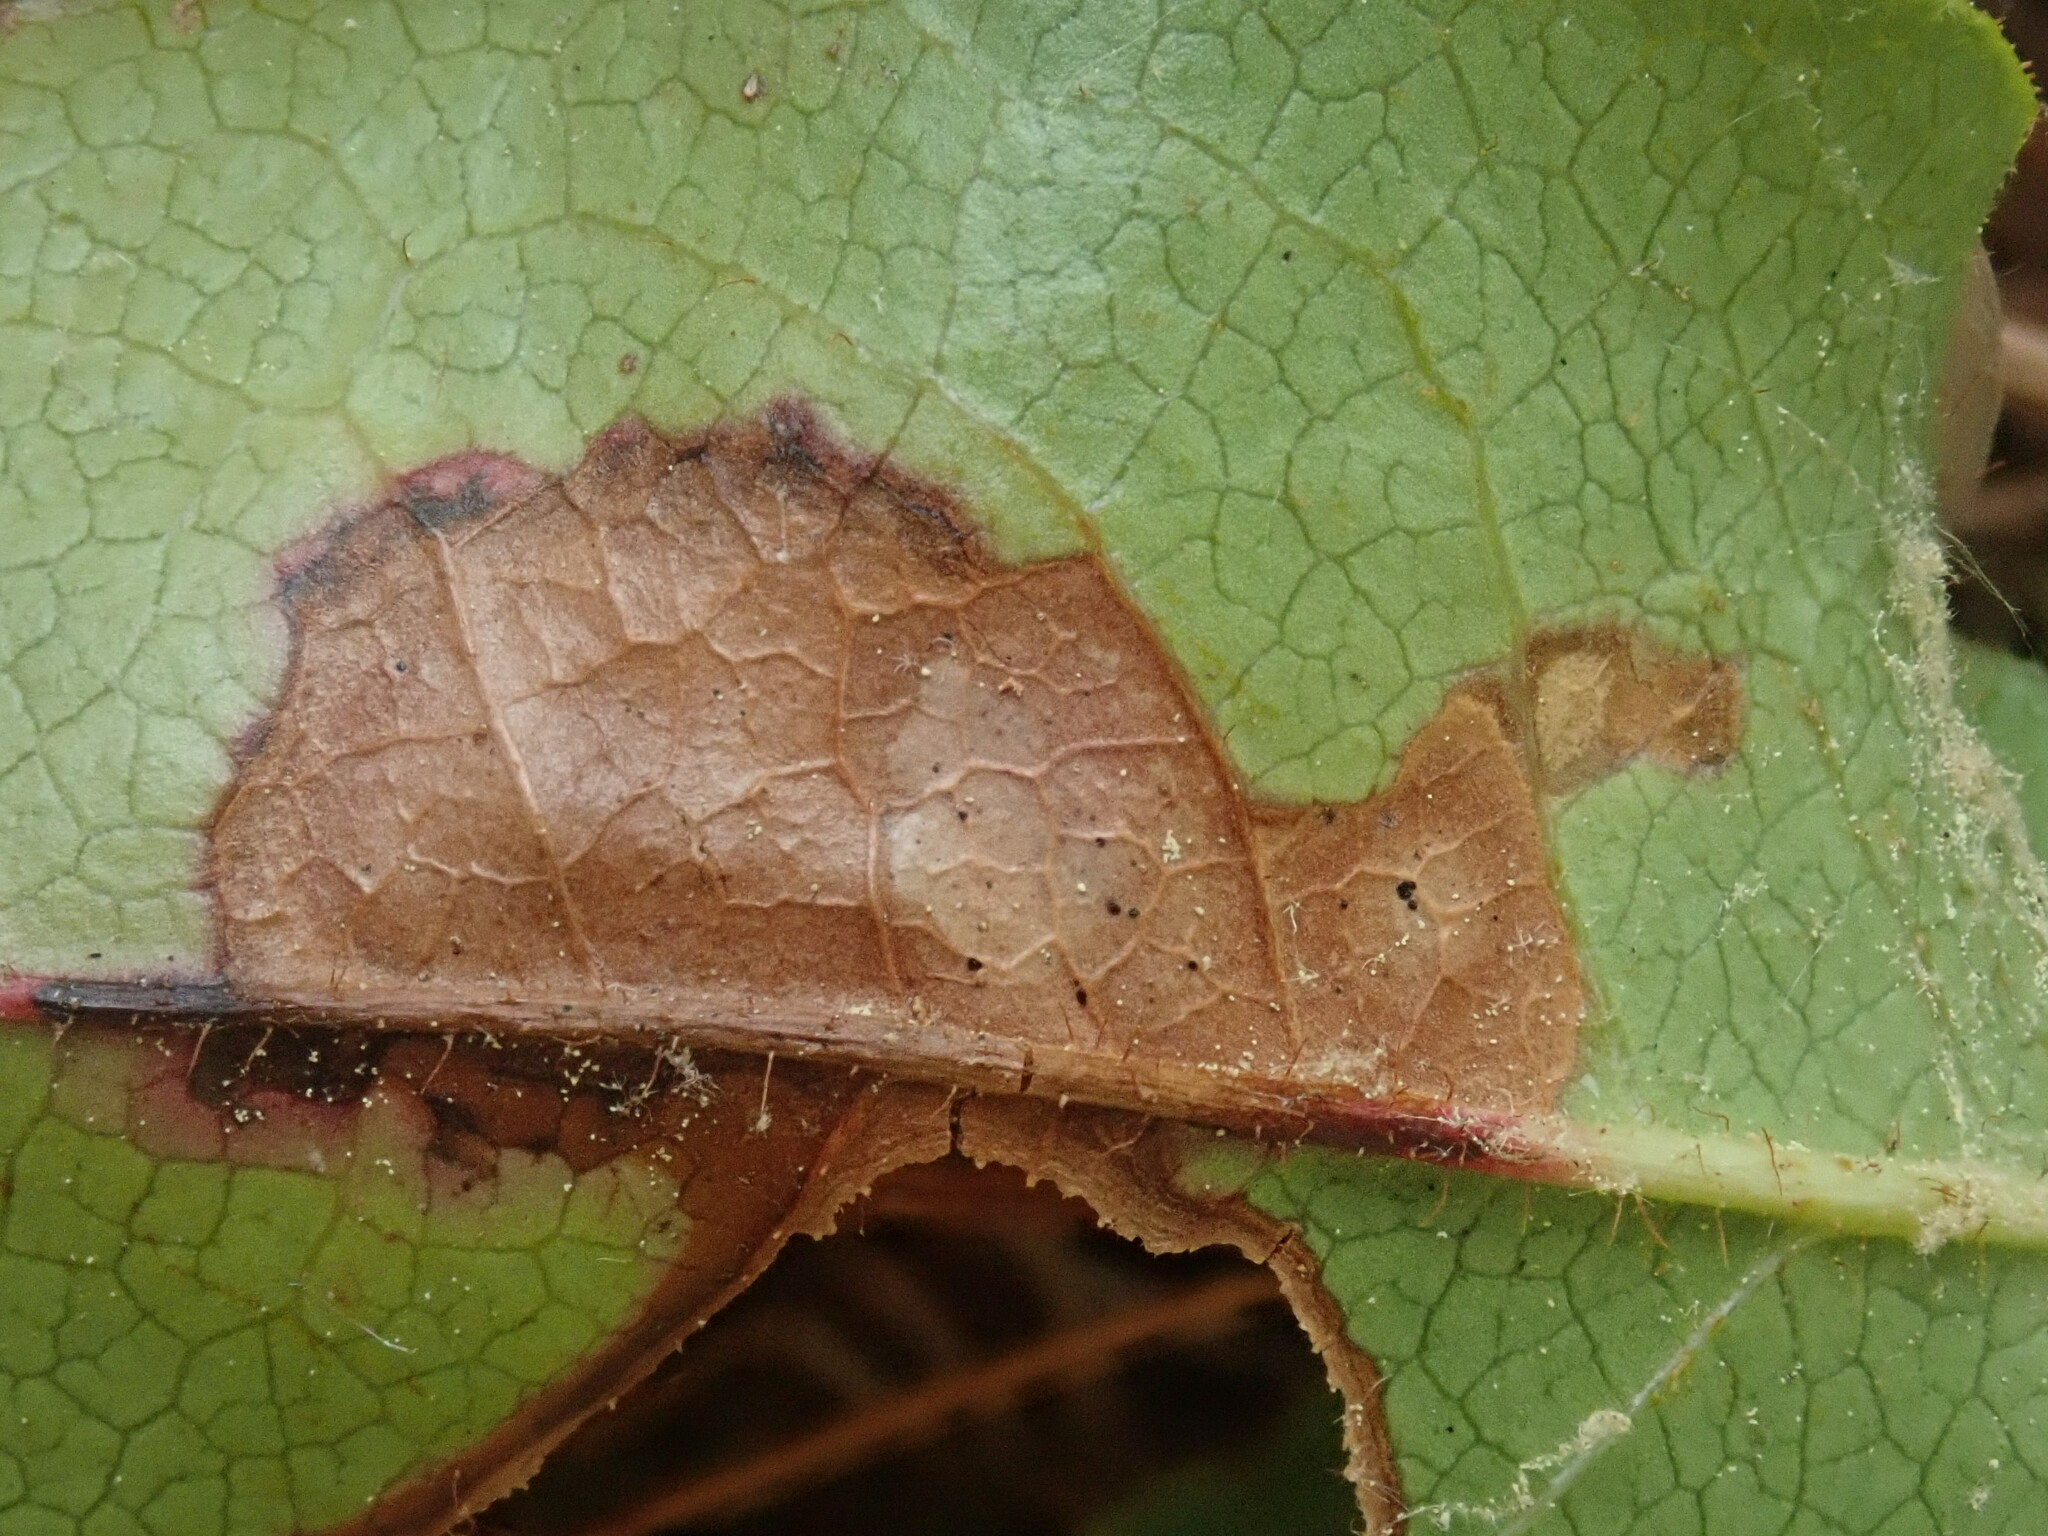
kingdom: Animalia
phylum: Arthropoda
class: Insecta
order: Coleoptera
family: Buprestidae
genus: Brachys
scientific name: Brachys
